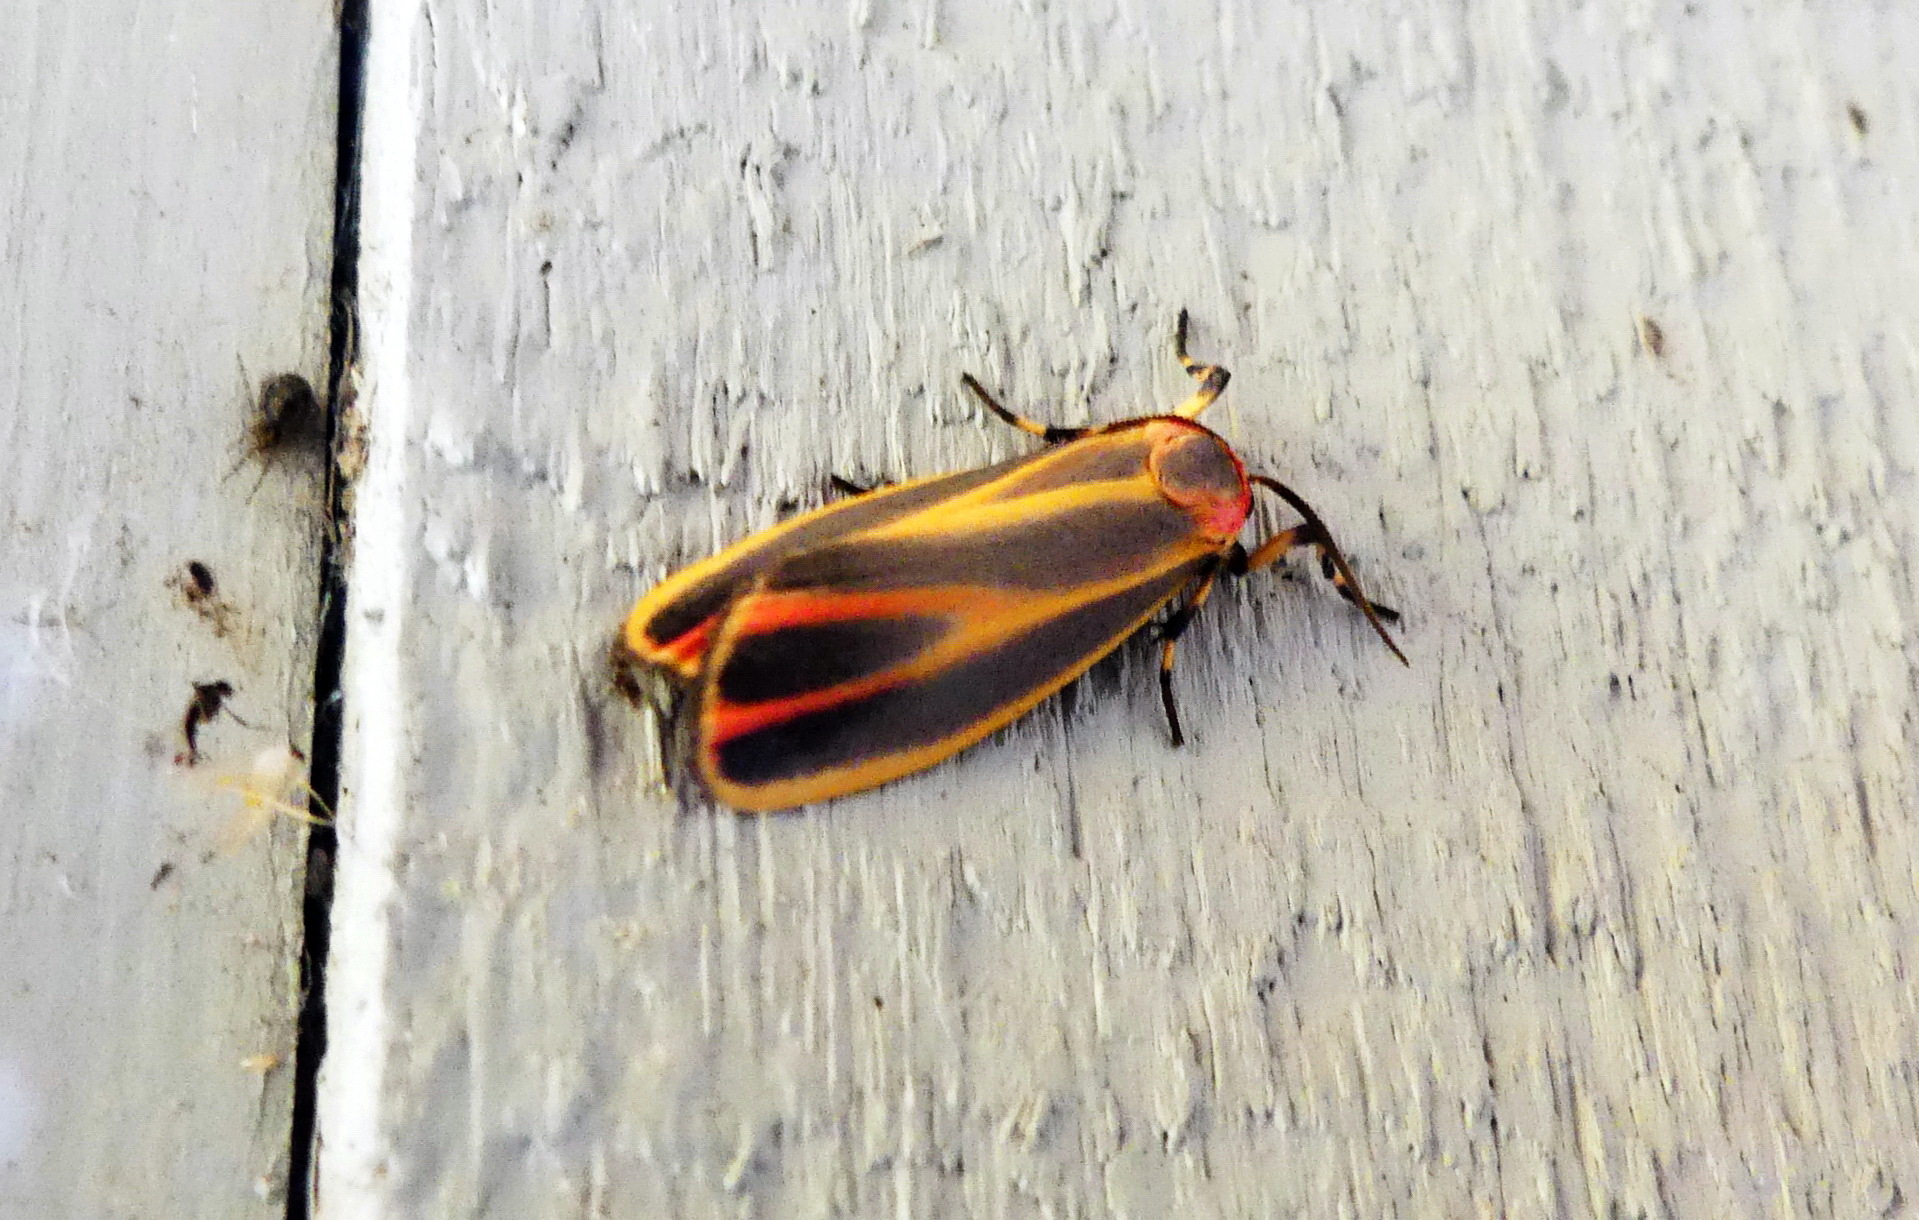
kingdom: Animalia
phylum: Arthropoda
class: Insecta
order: Lepidoptera
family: Erebidae
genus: Hypoprepia
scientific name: Hypoprepia fucosa
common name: Painted lichen moth
